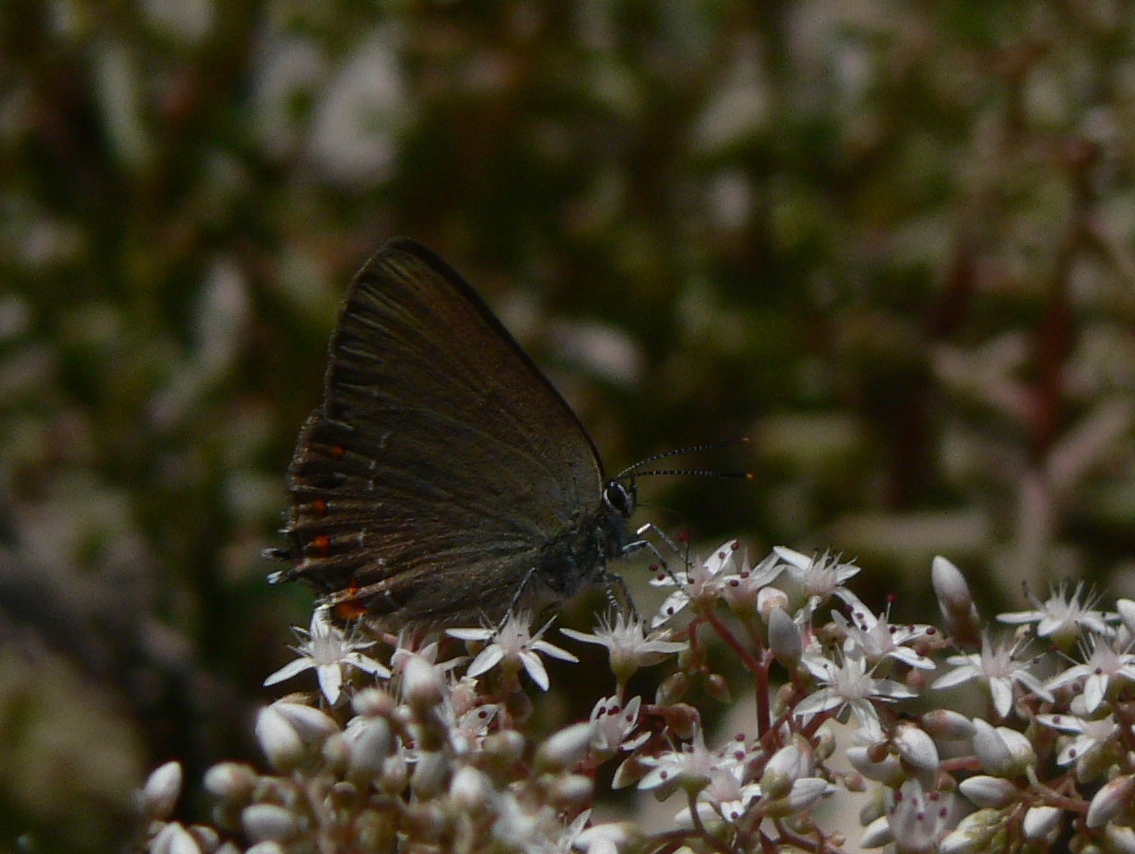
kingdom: Animalia
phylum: Arthropoda
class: Insecta
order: Lepidoptera
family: Lycaenidae
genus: Fixsenia
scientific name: Fixsenia esculi
